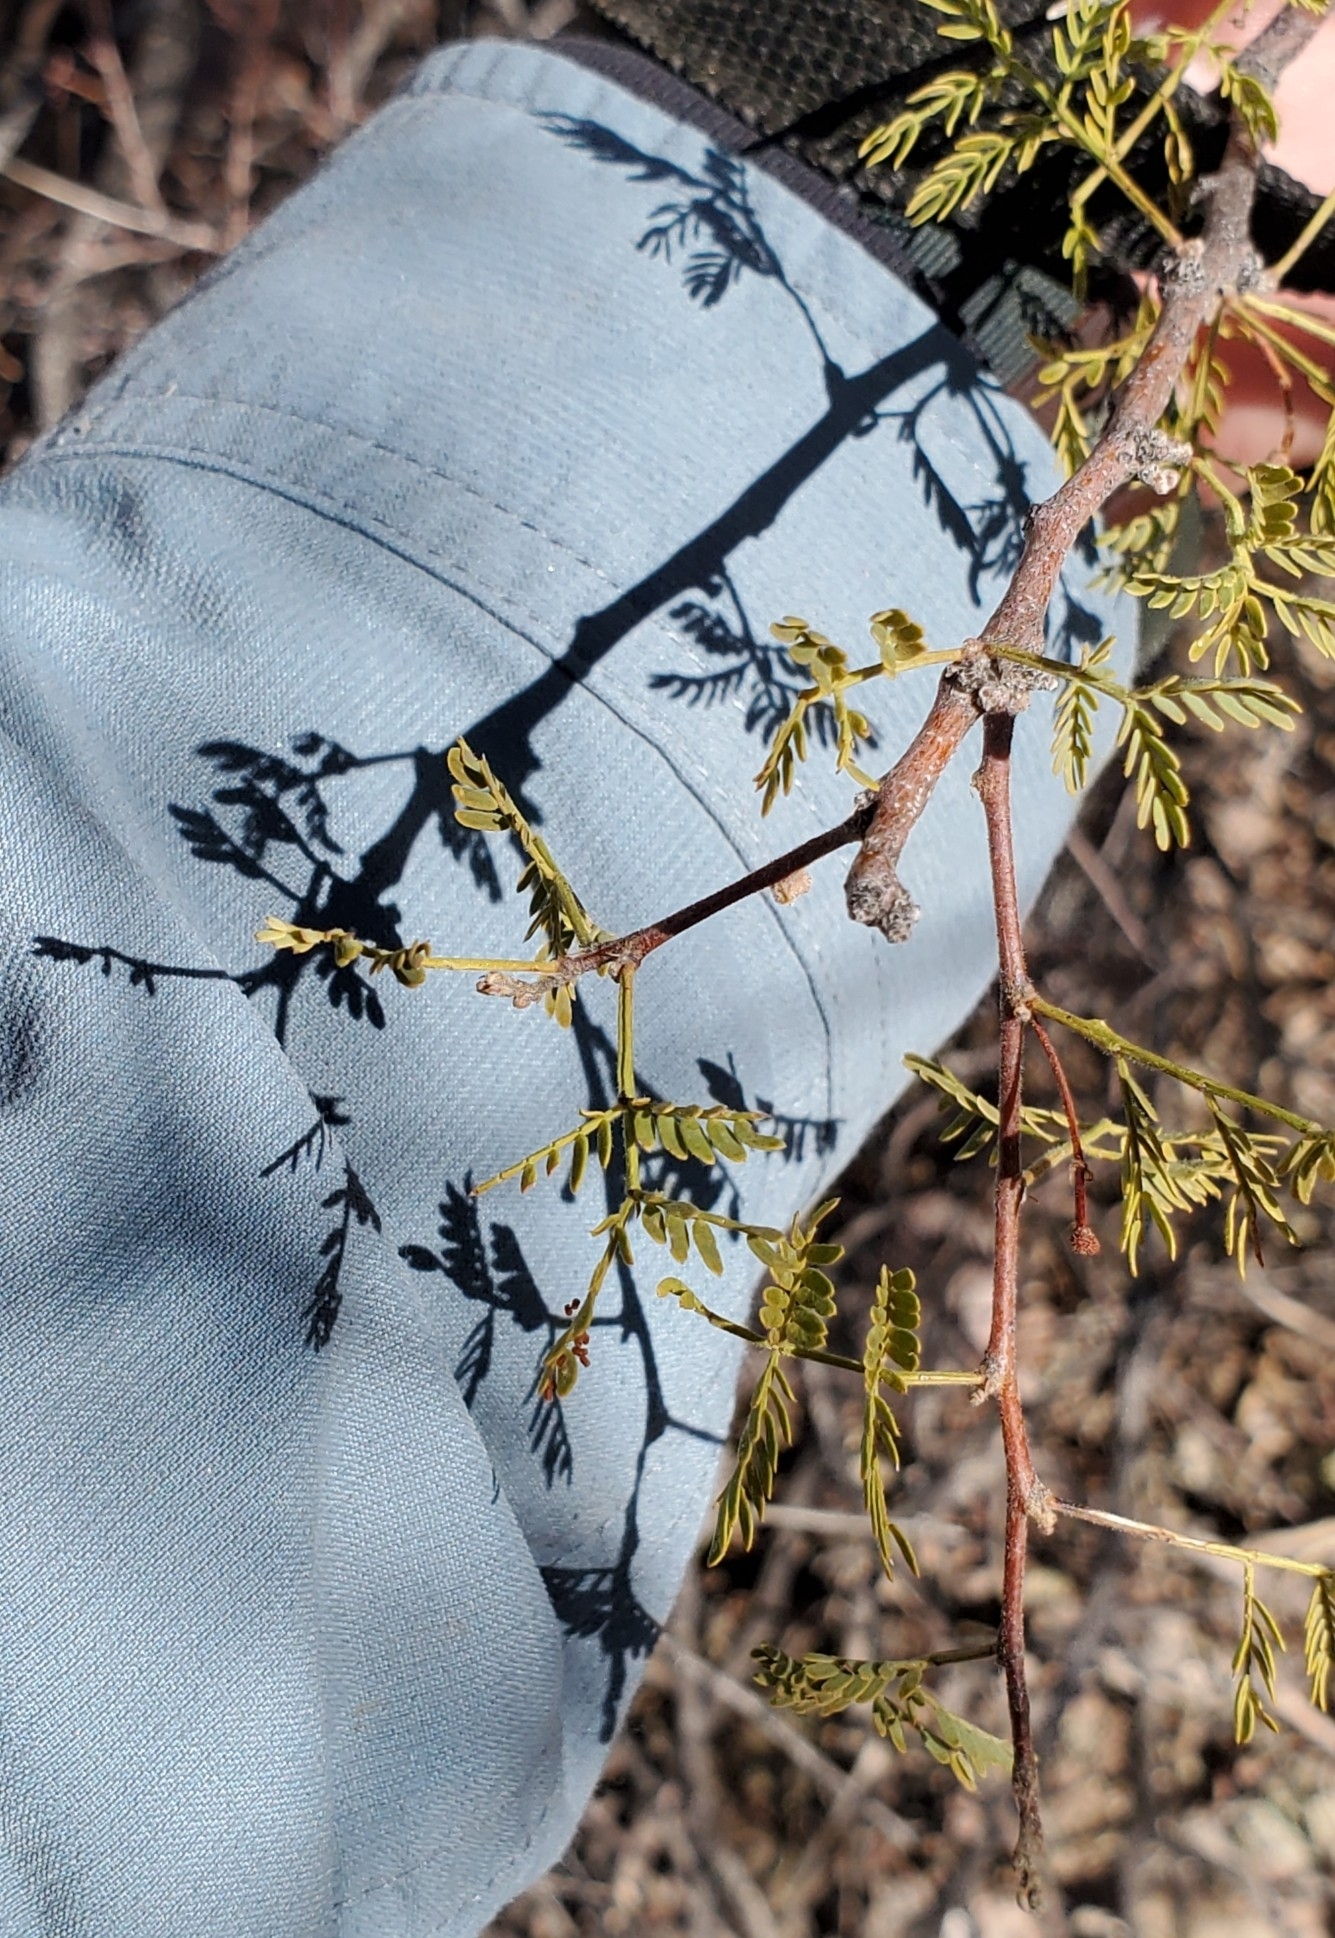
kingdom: Plantae
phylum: Tracheophyta
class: Magnoliopsida
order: Fabales
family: Fabaceae
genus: Vachellia
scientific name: Vachellia constricta
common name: Mescat acacia
